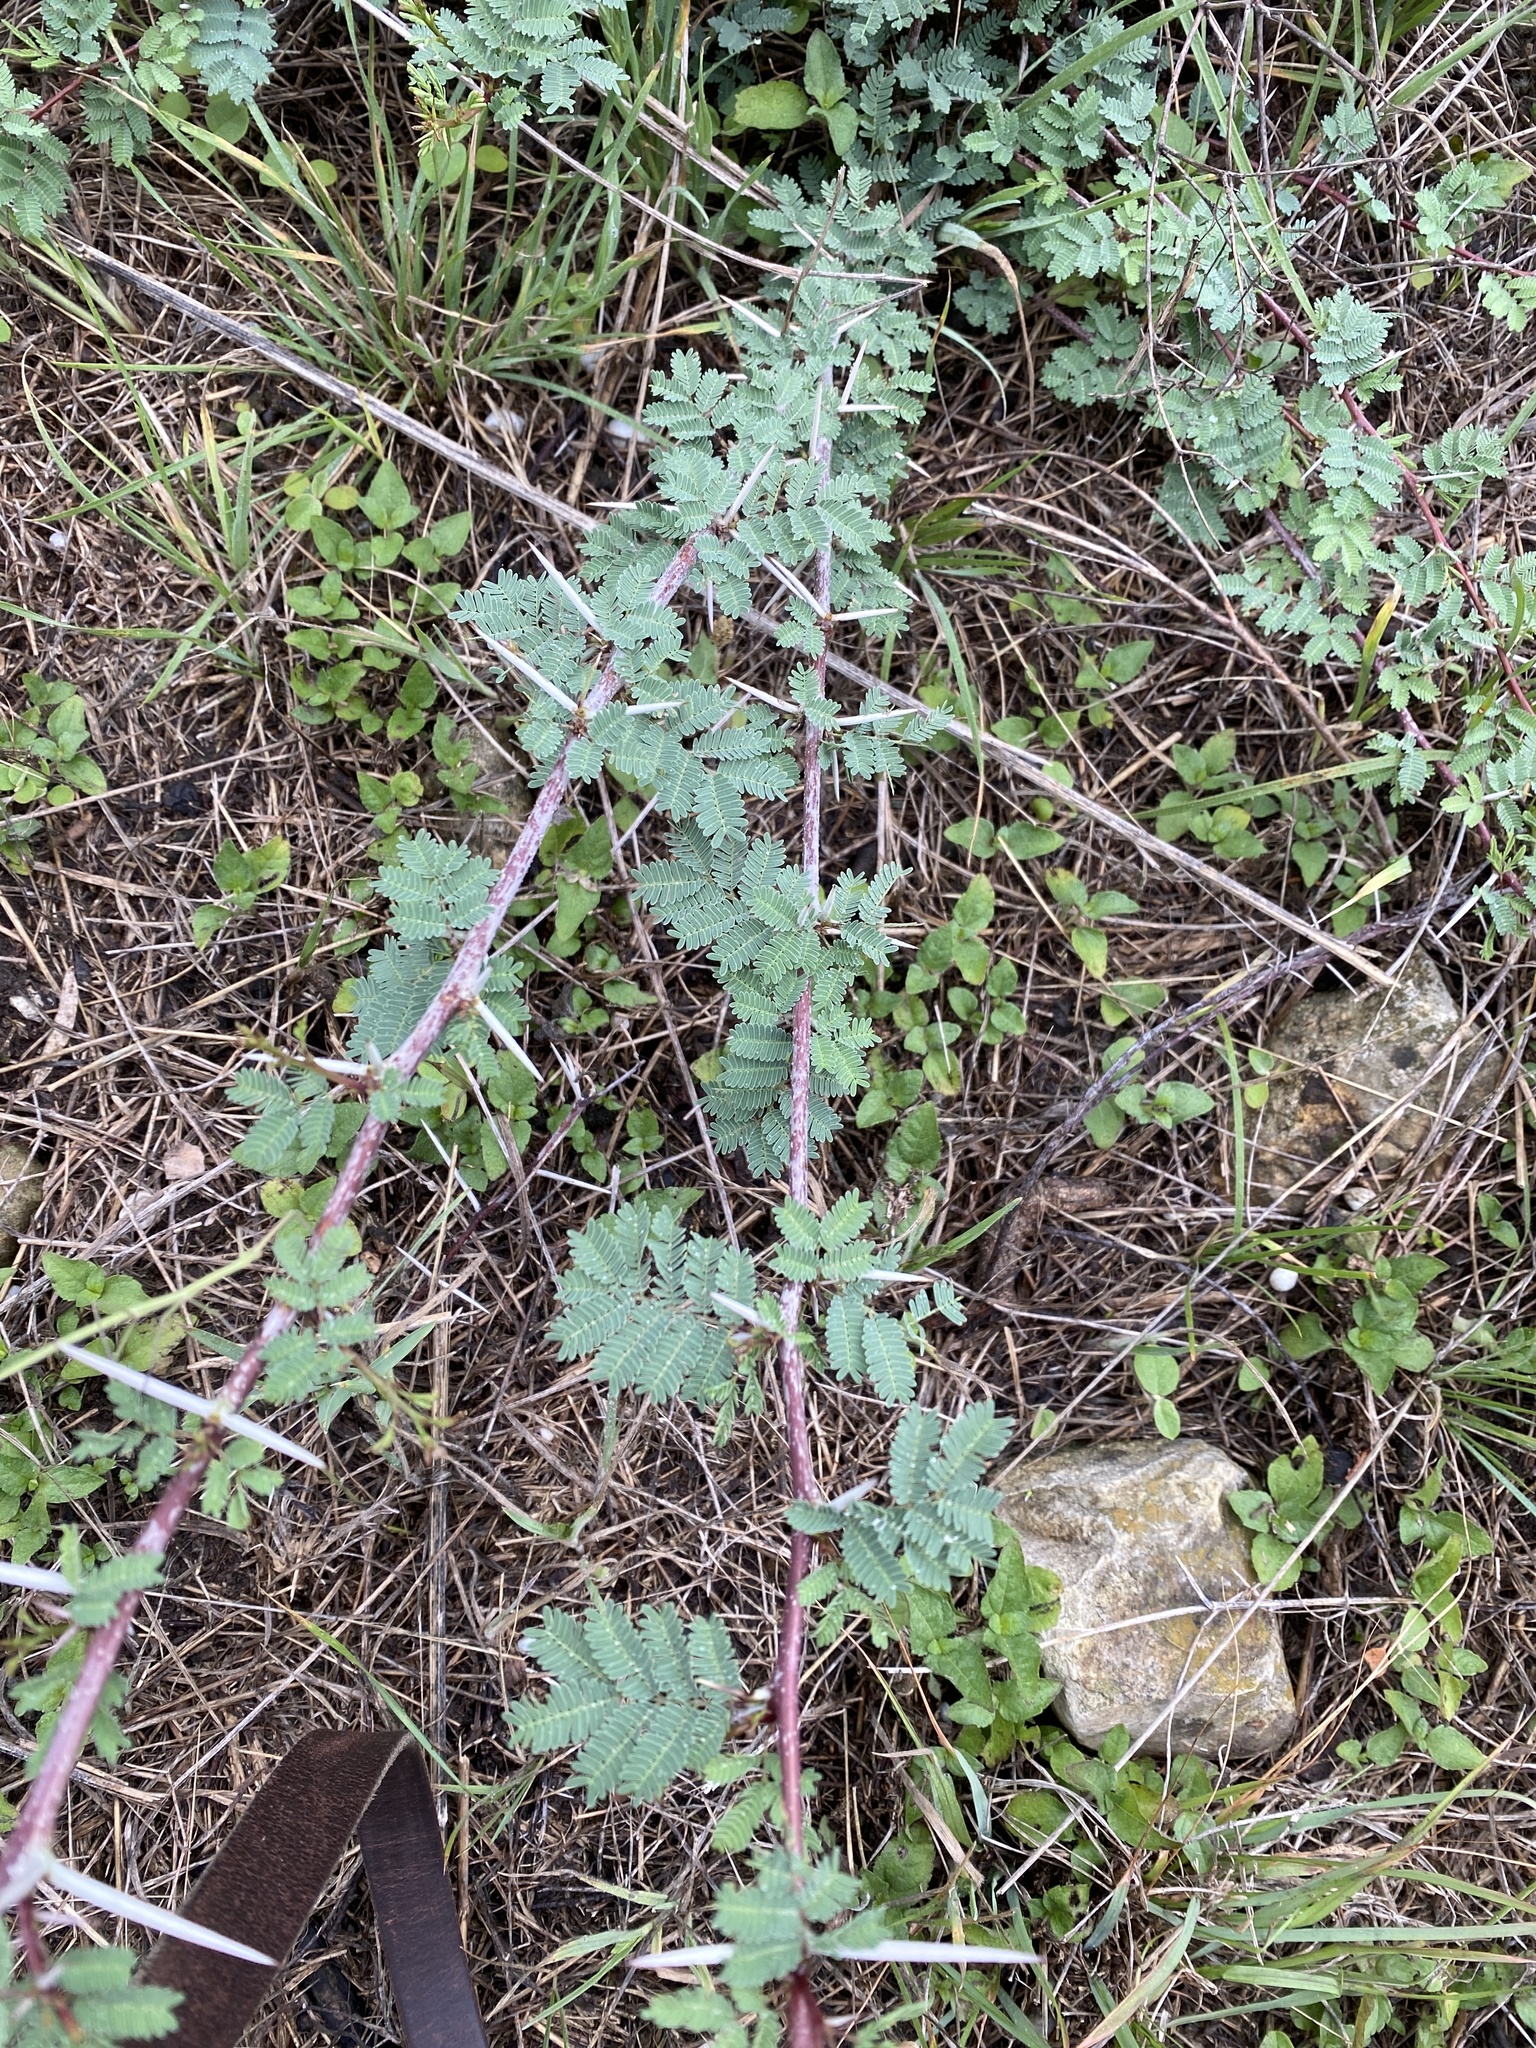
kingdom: Plantae
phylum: Tracheophyta
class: Magnoliopsida
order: Fabales
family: Fabaceae
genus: Vachellia
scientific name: Vachellia farnesiana
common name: Sweet acacia
